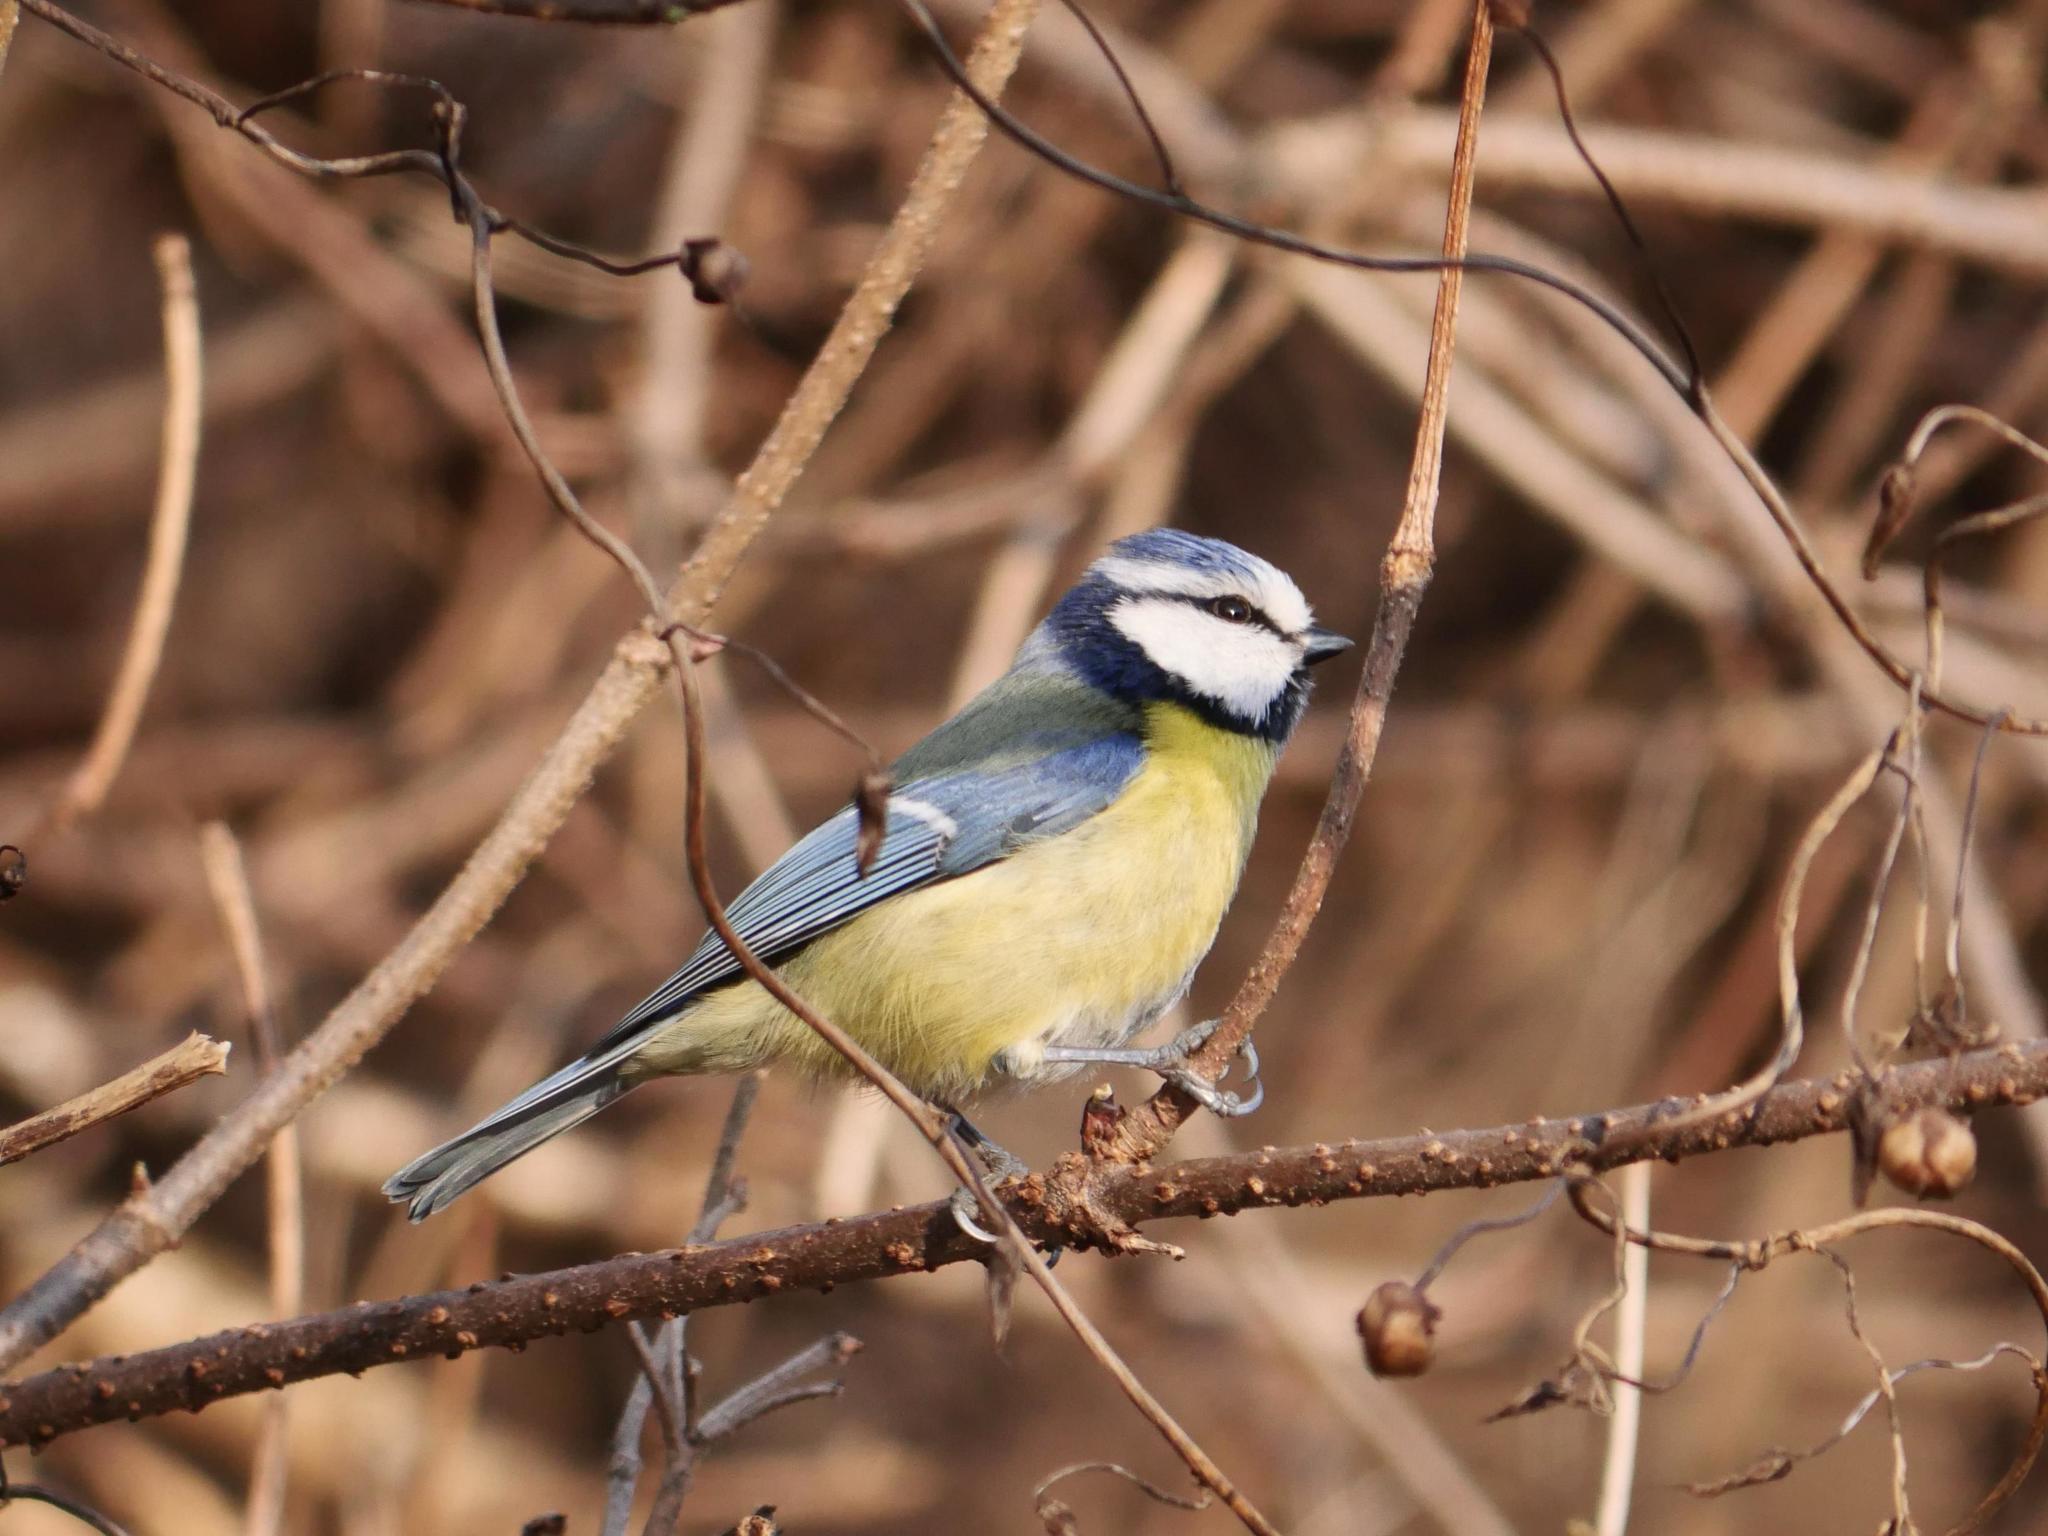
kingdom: Animalia
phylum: Chordata
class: Aves
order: Passeriformes
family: Paridae
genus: Cyanistes
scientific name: Cyanistes caeruleus
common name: Eurasian blue tit
